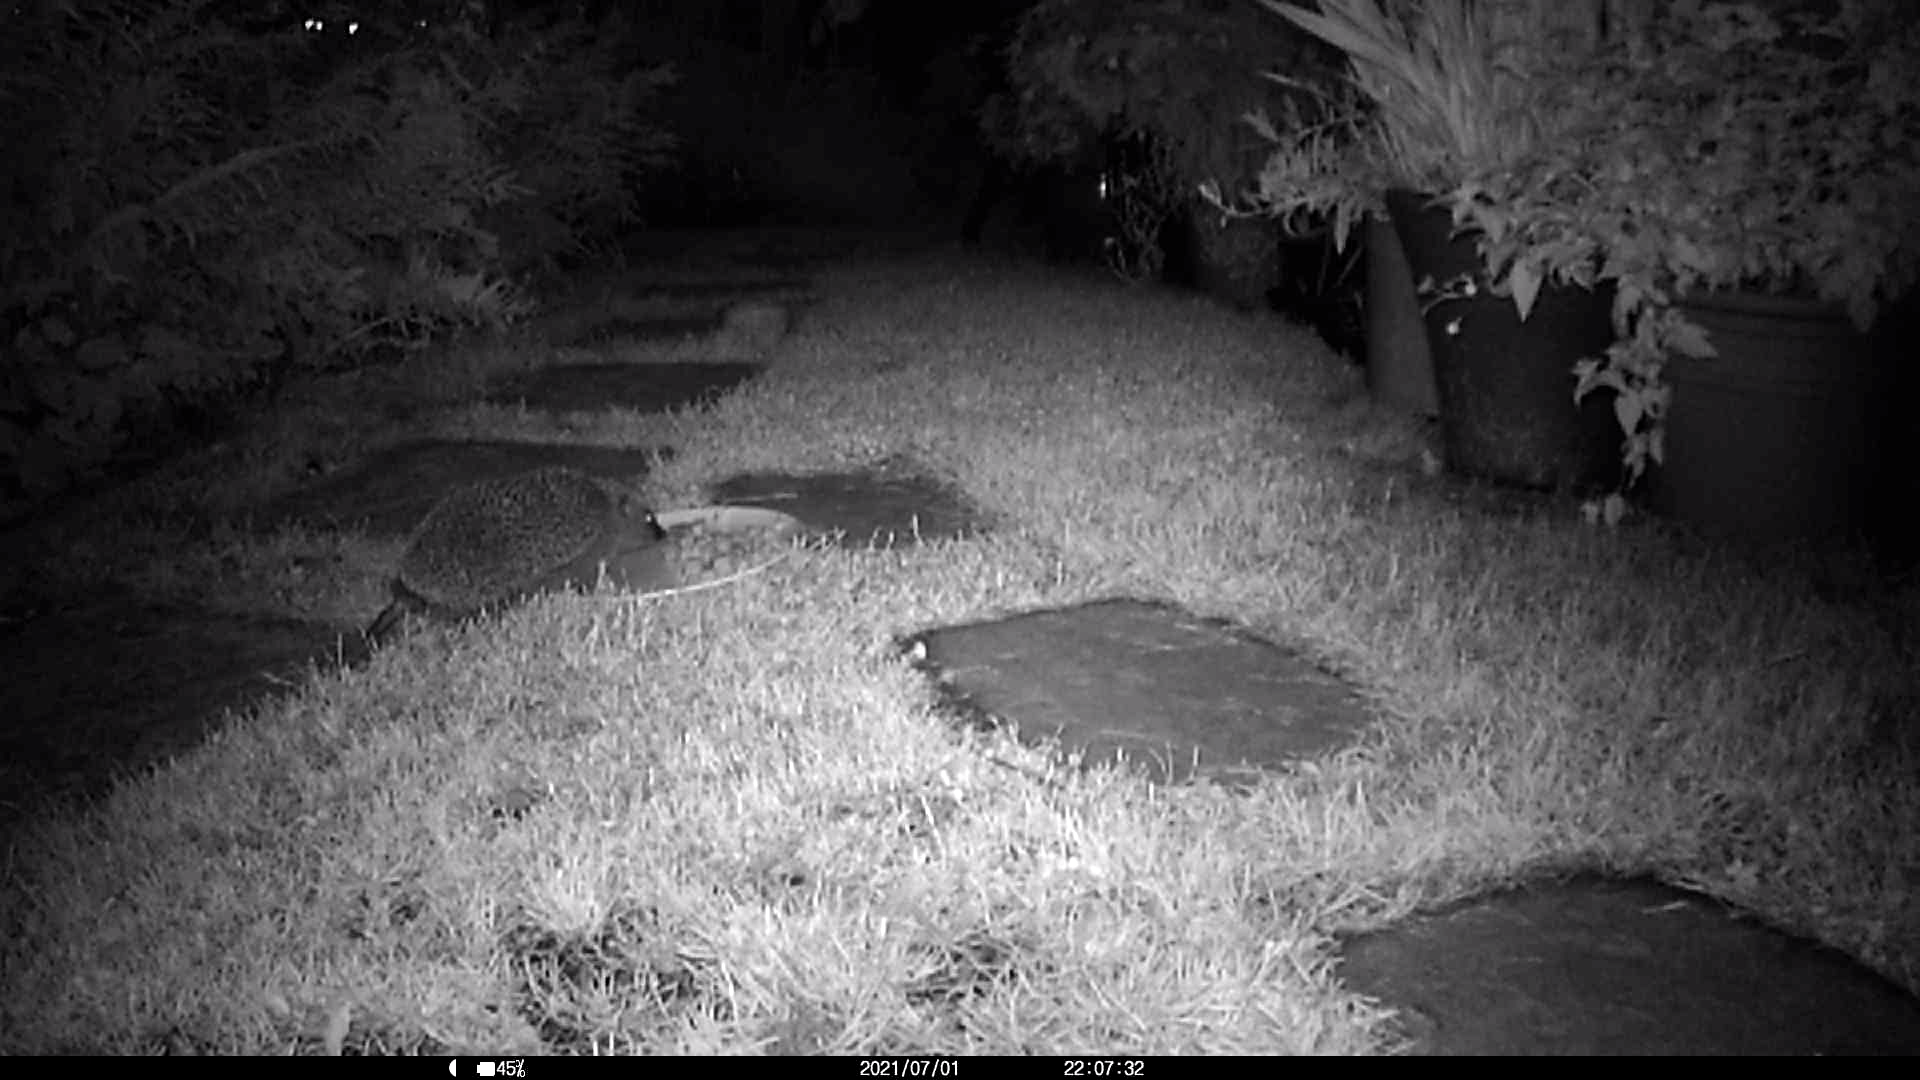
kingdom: Animalia
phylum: Chordata
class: Mammalia
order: Erinaceomorpha
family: Erinaceidae
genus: Erinaceus
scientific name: Erinaceus europaeus
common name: West european hedgehog
